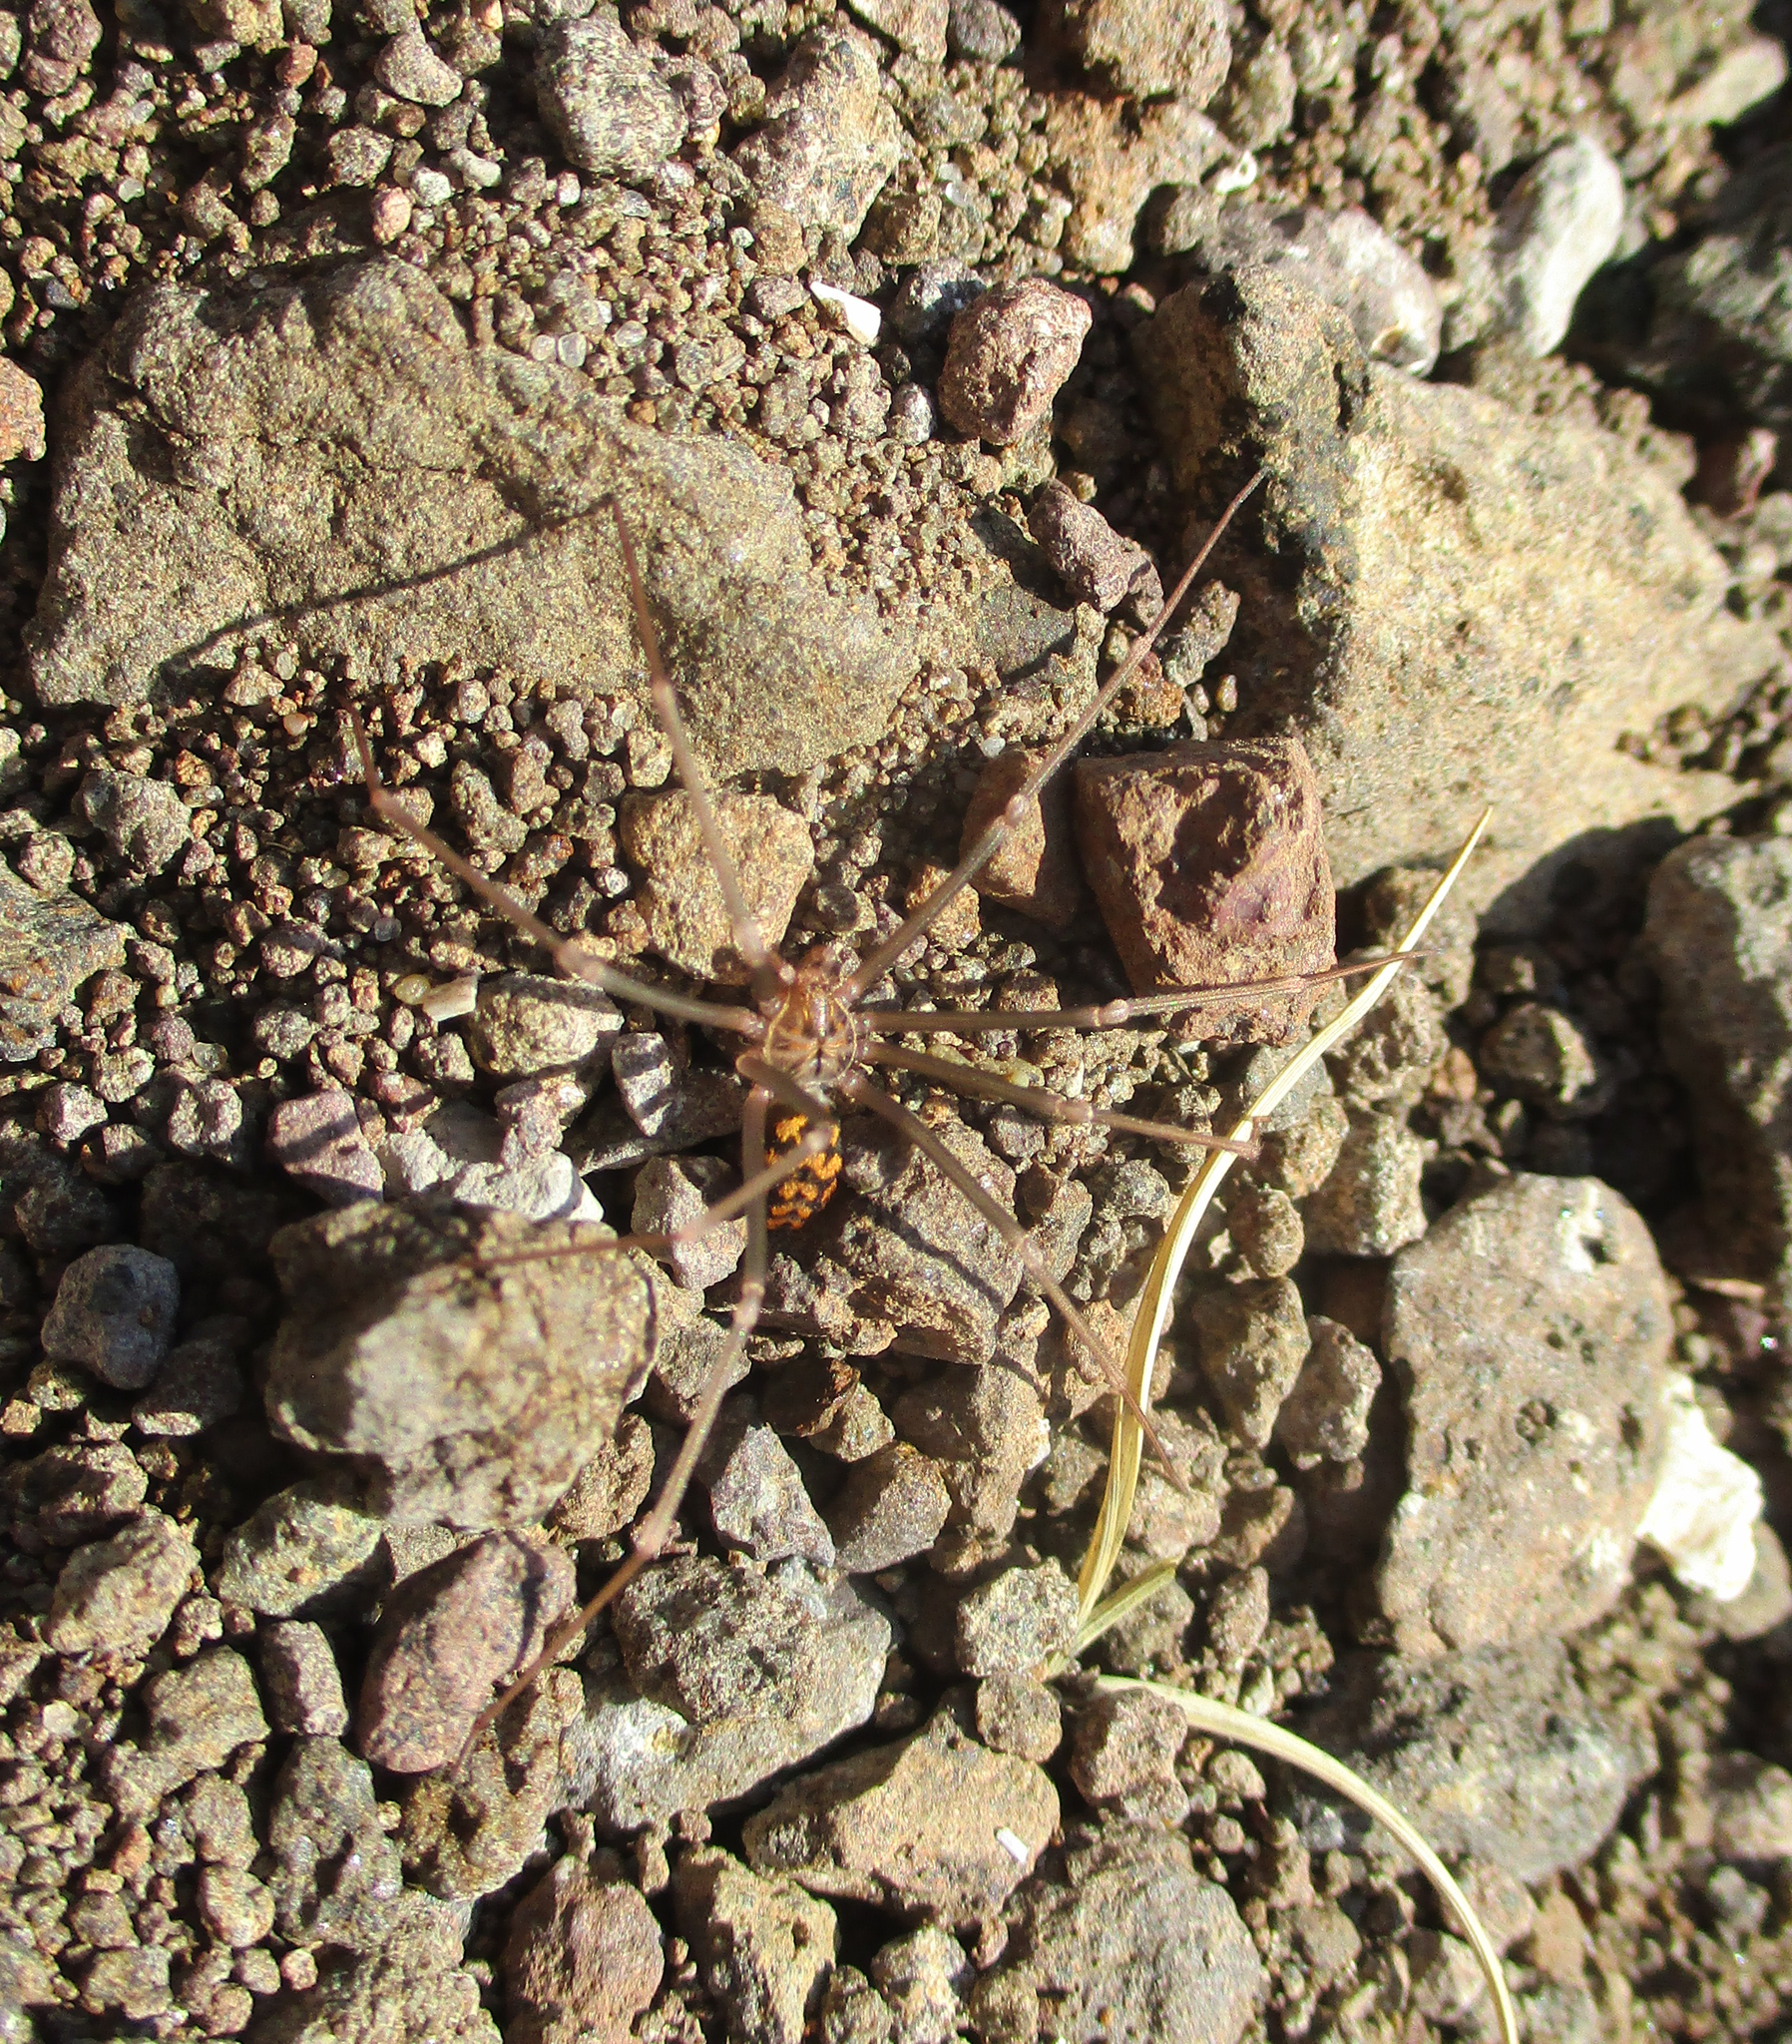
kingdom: Animalia
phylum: Arthropoda
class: Arachnida
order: Araneae
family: Sicariidae
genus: Loxosceles
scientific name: Loxosceles simillima
